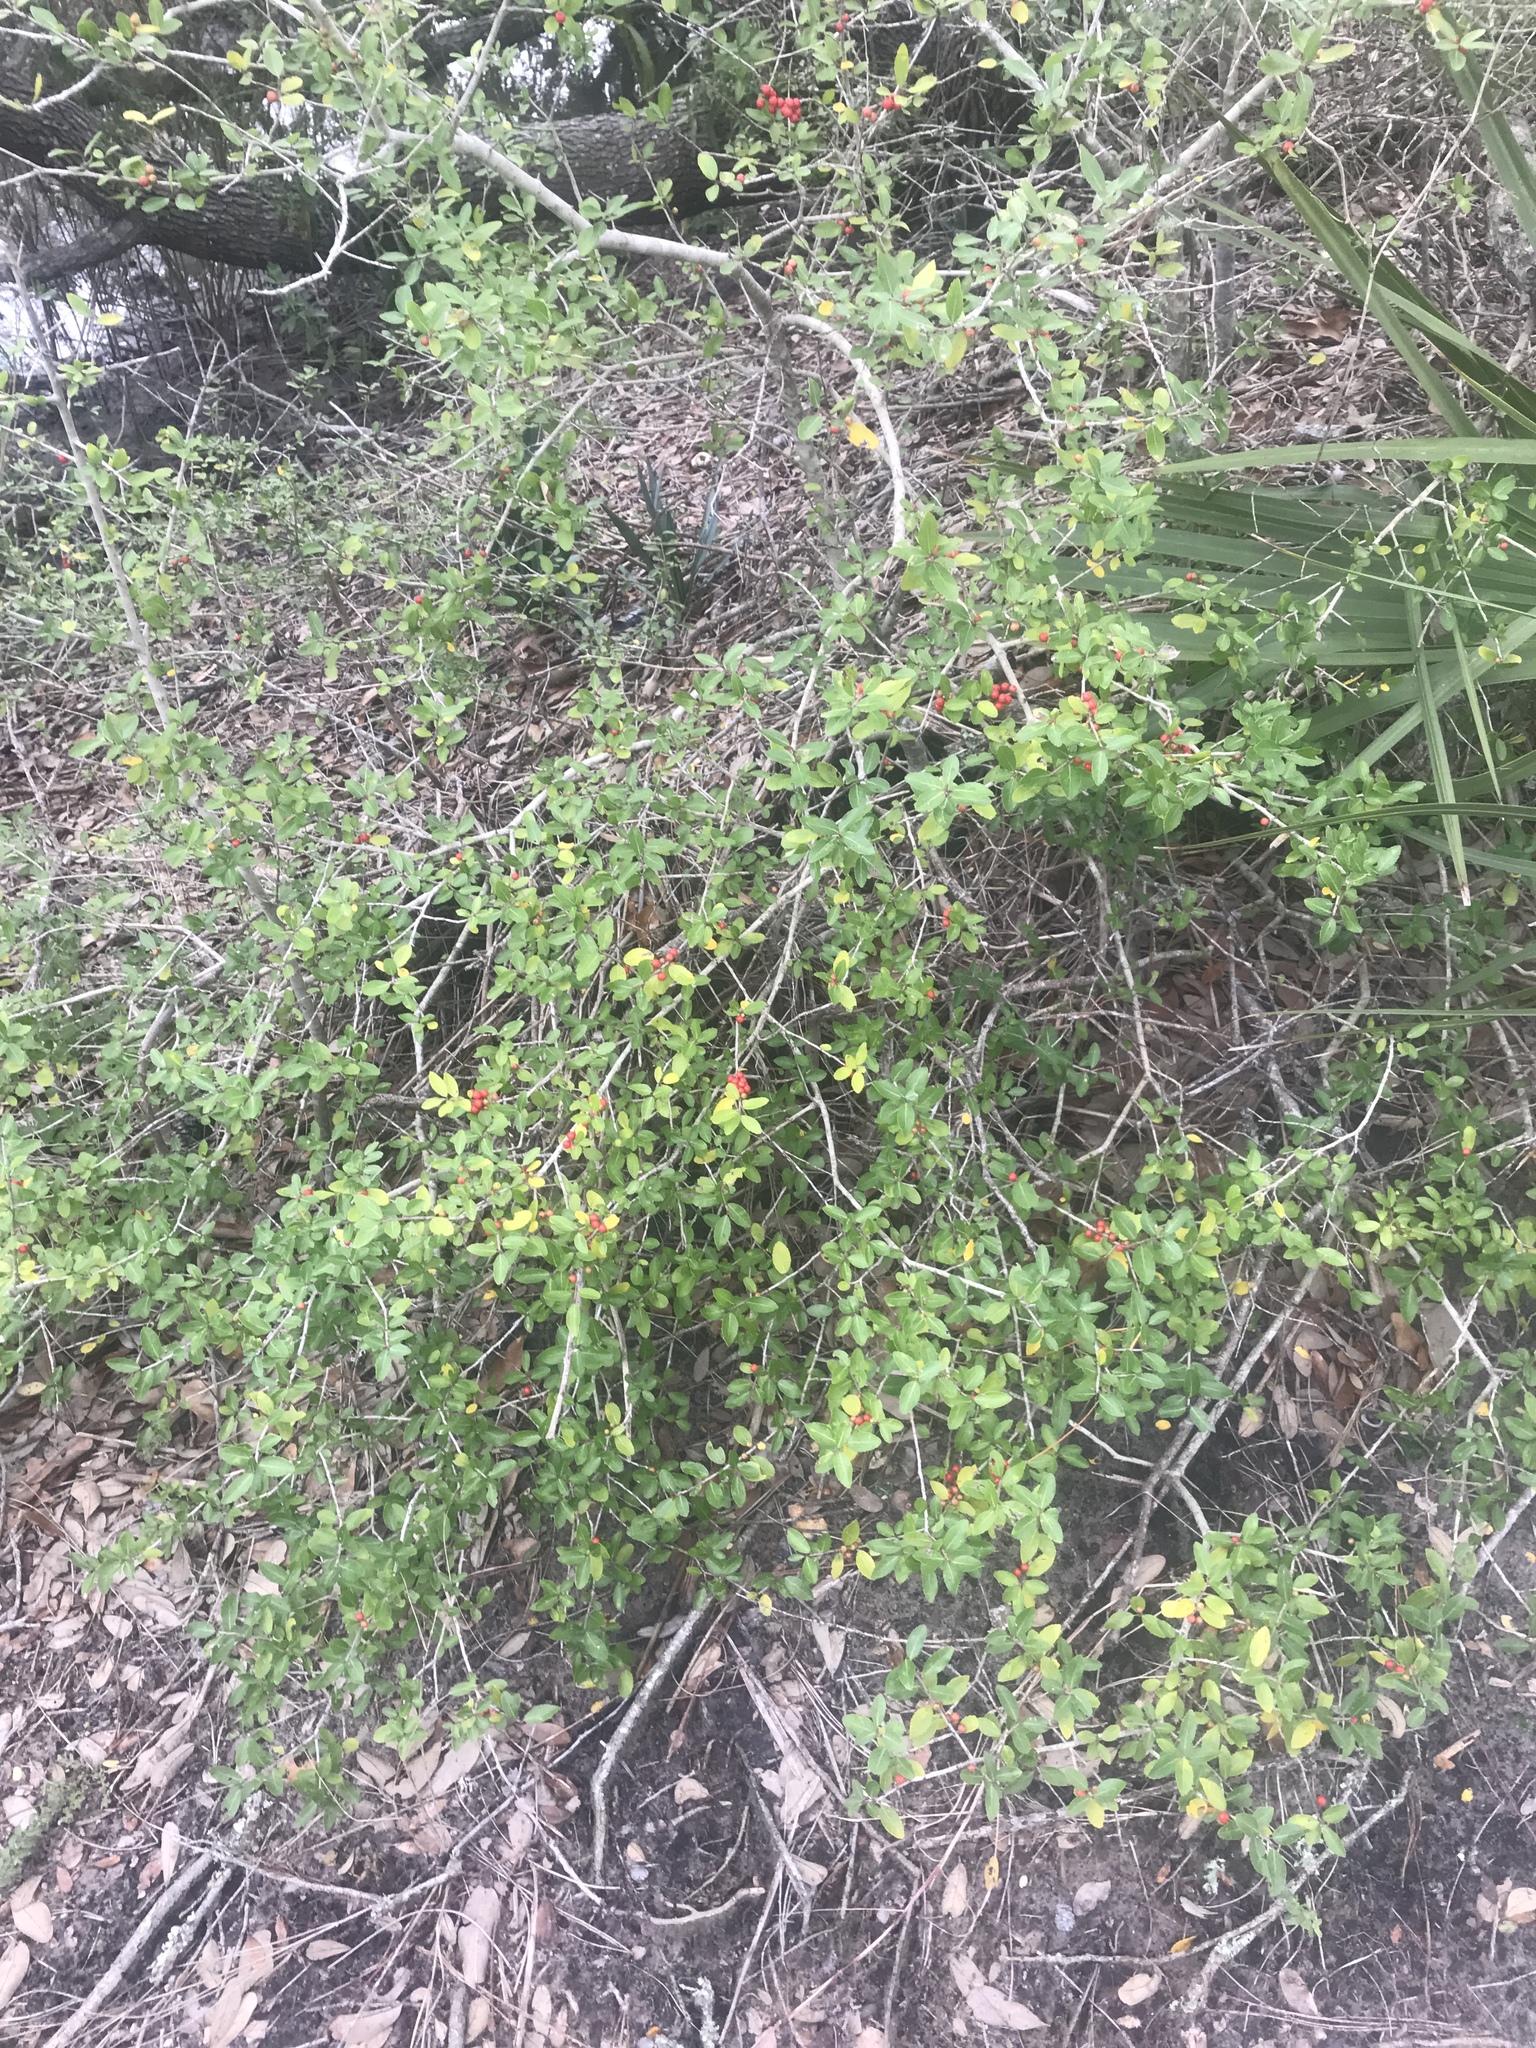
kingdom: Plantae
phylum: Tracheophyta
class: Magnoliopsida
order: Aquifoliales
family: Aquifoliaceae
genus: Ilex
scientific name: Ilex vomitoria
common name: Yaupon holly
